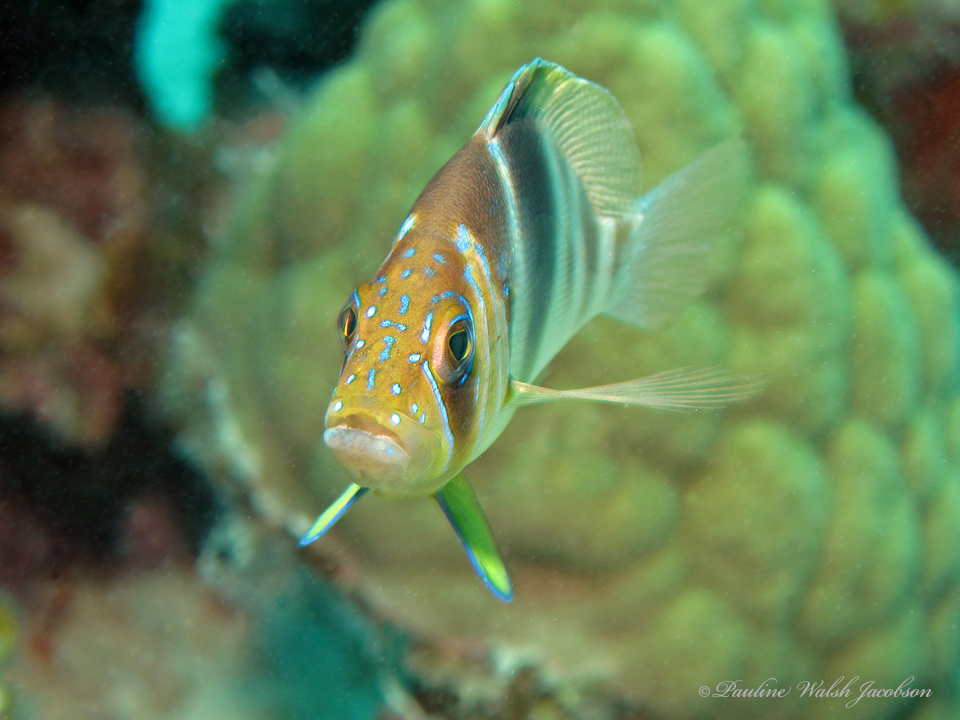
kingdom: Animalia
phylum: Chordata
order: Perciformes
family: Serranidae
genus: Hypoplectrus
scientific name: Hypoplectrus puella
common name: Barred hamlet
